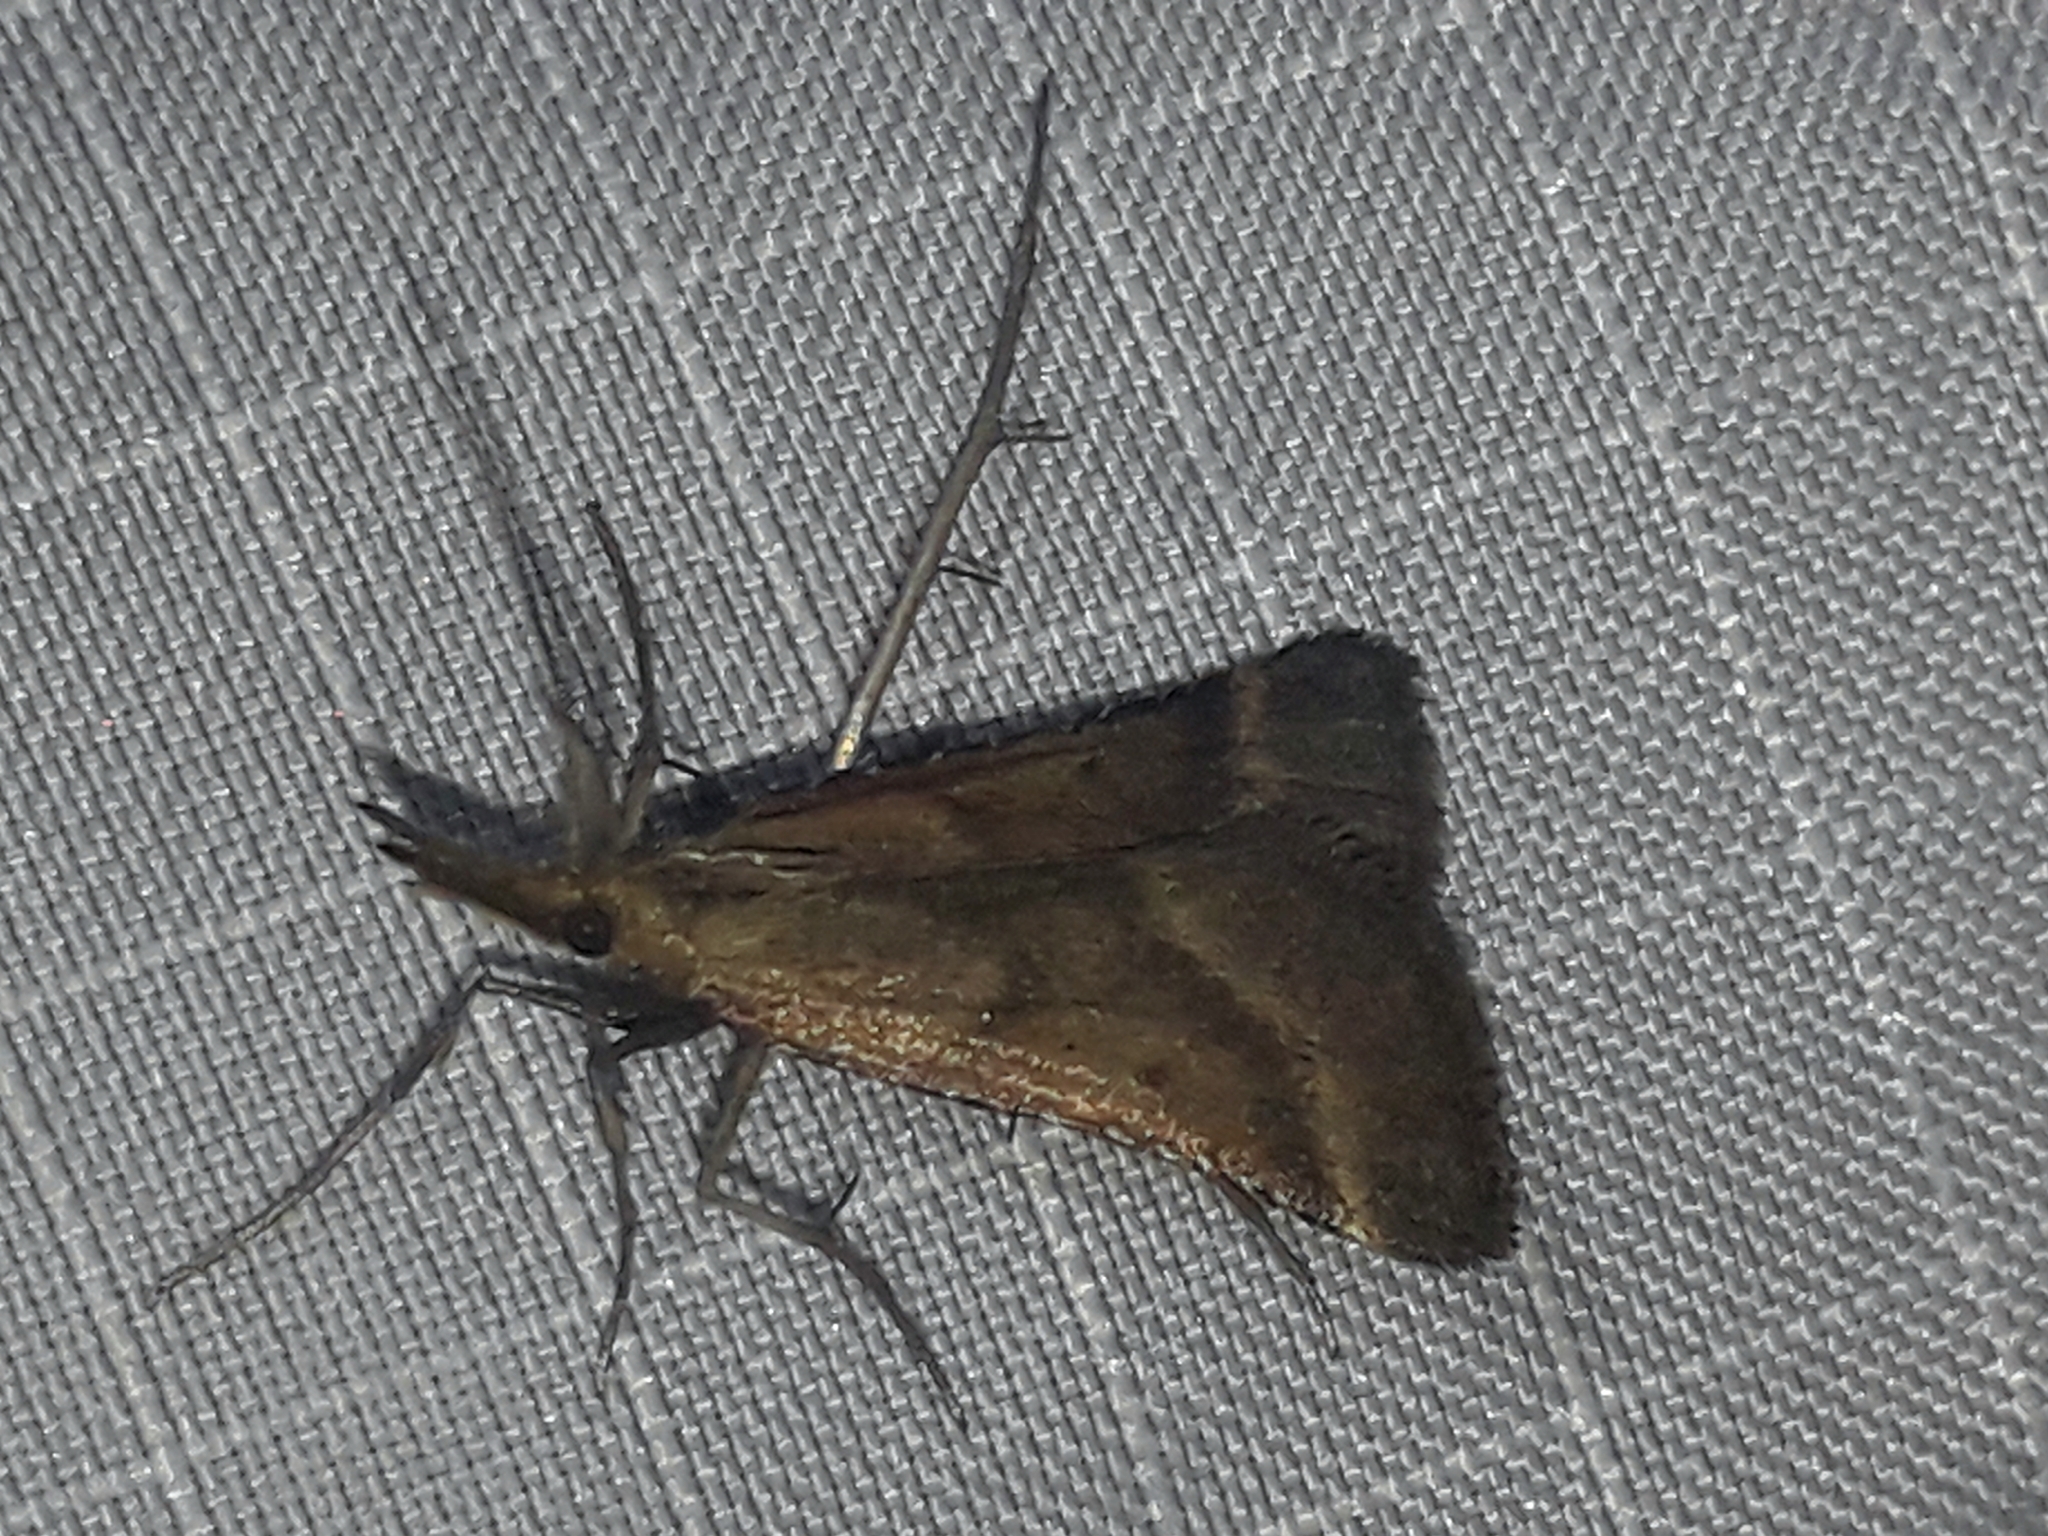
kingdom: Animalia
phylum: Arthropoda
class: Insecta
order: Lepidoptera
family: Pyralidae
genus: Synaphe
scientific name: Synaphe punctalis
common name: Long-legged tabby
